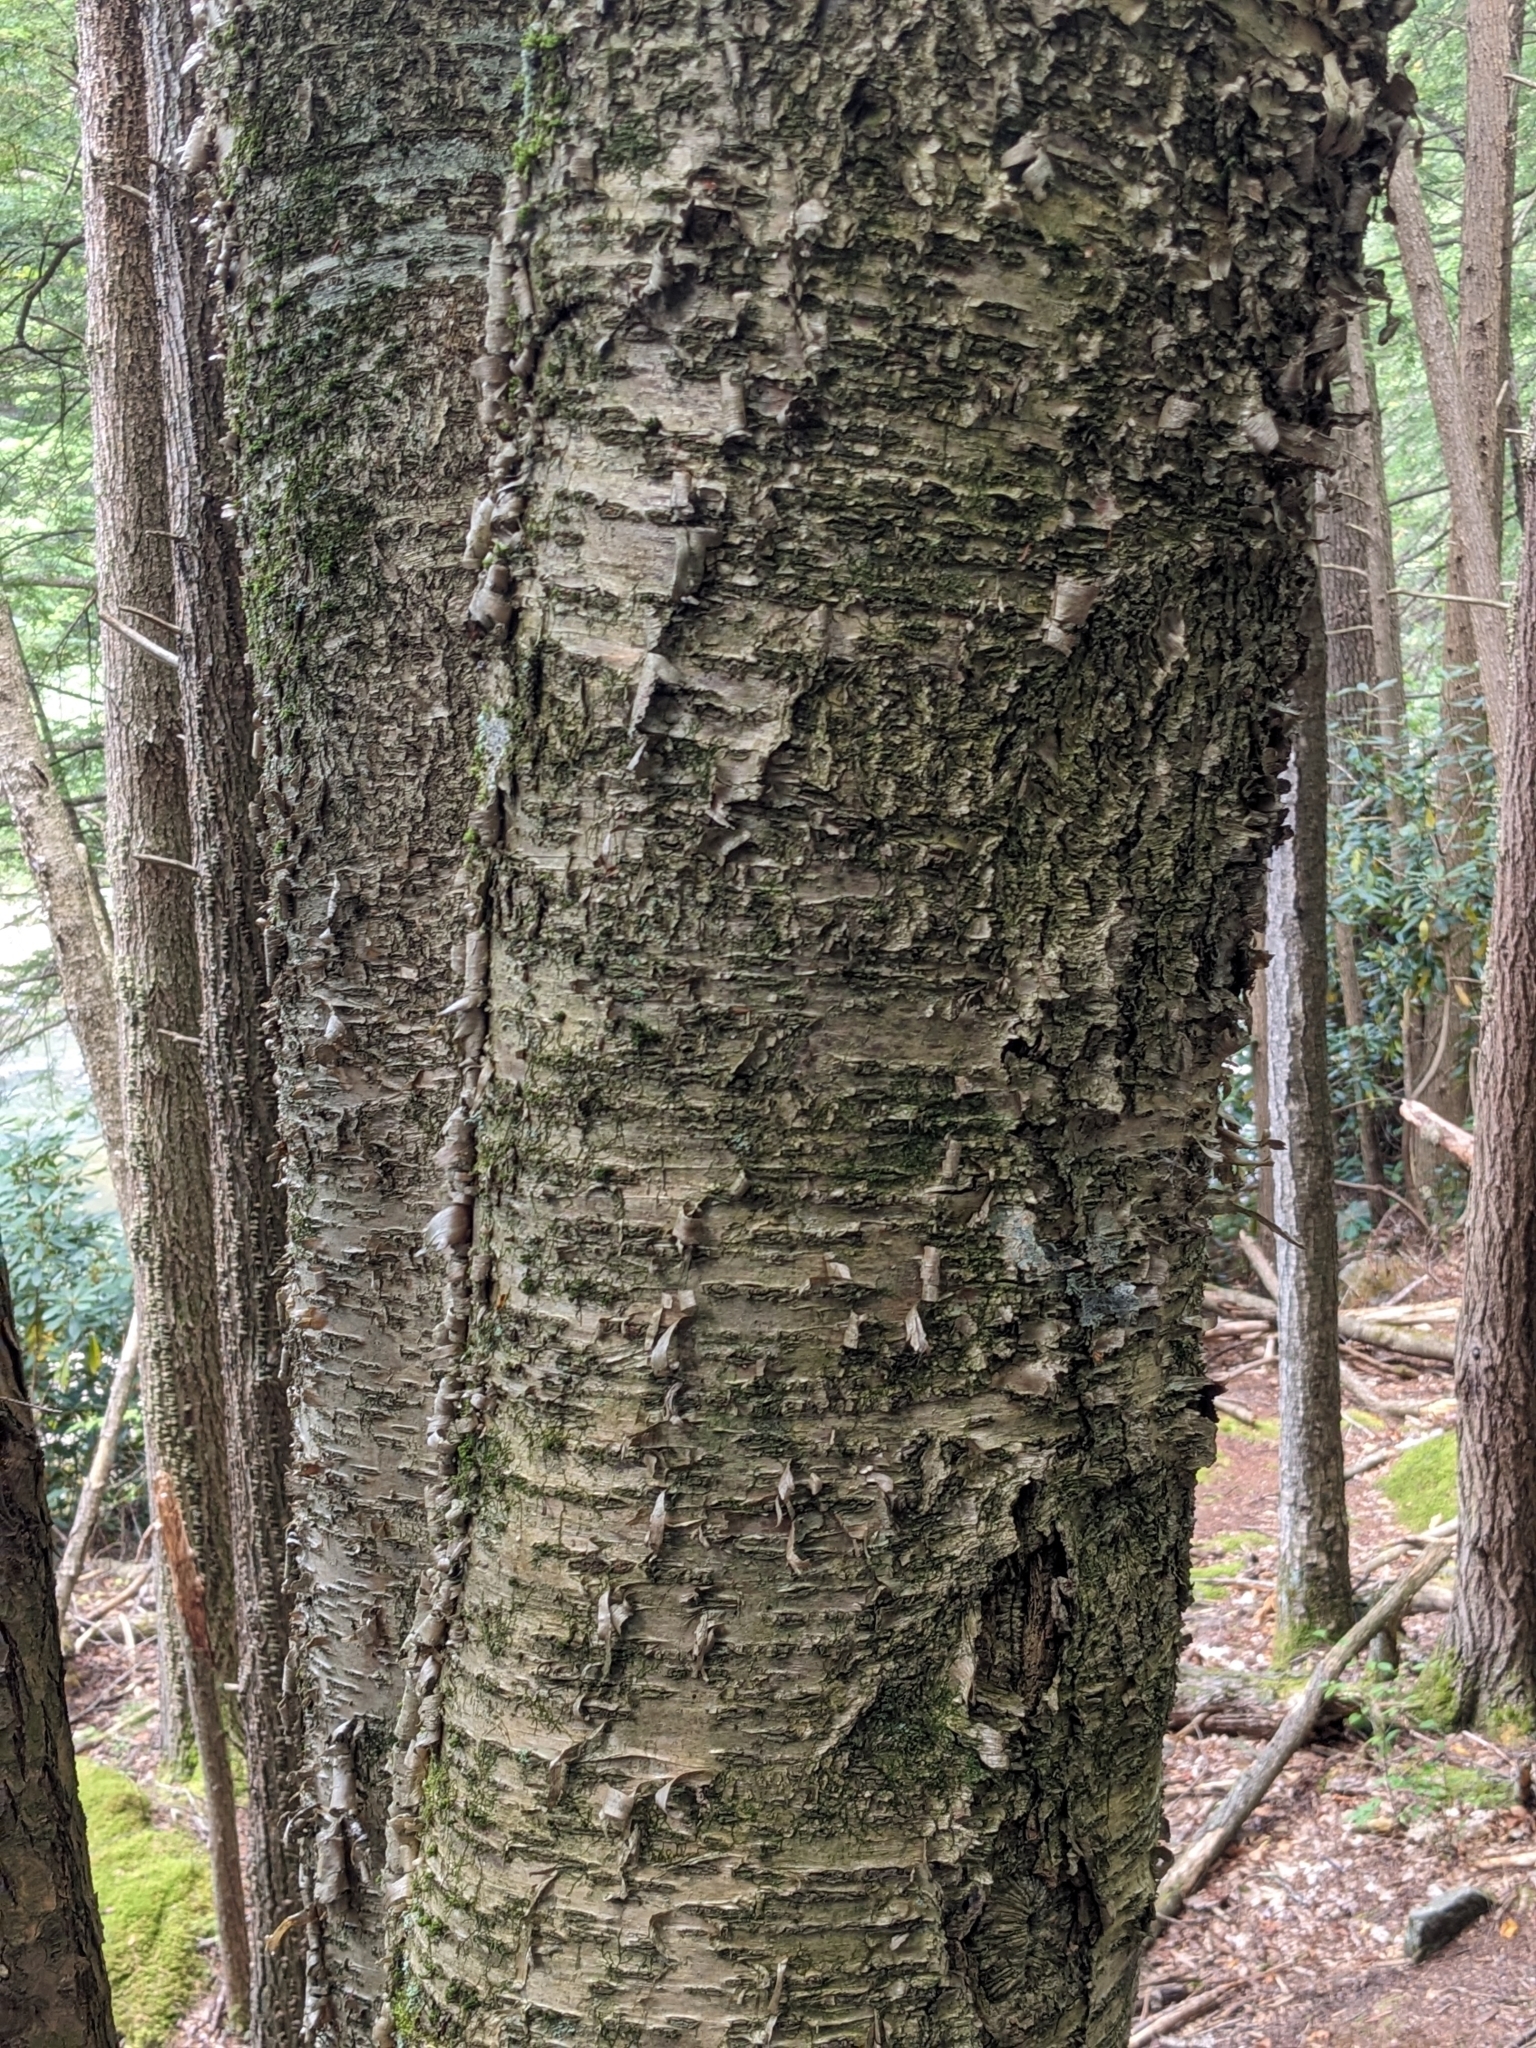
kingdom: Plantae
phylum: Tracheophyta
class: Magnoliopsida
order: Fagales
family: Betulaceae
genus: Betula
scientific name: Betula alleghaniensis
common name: Yellow birch
